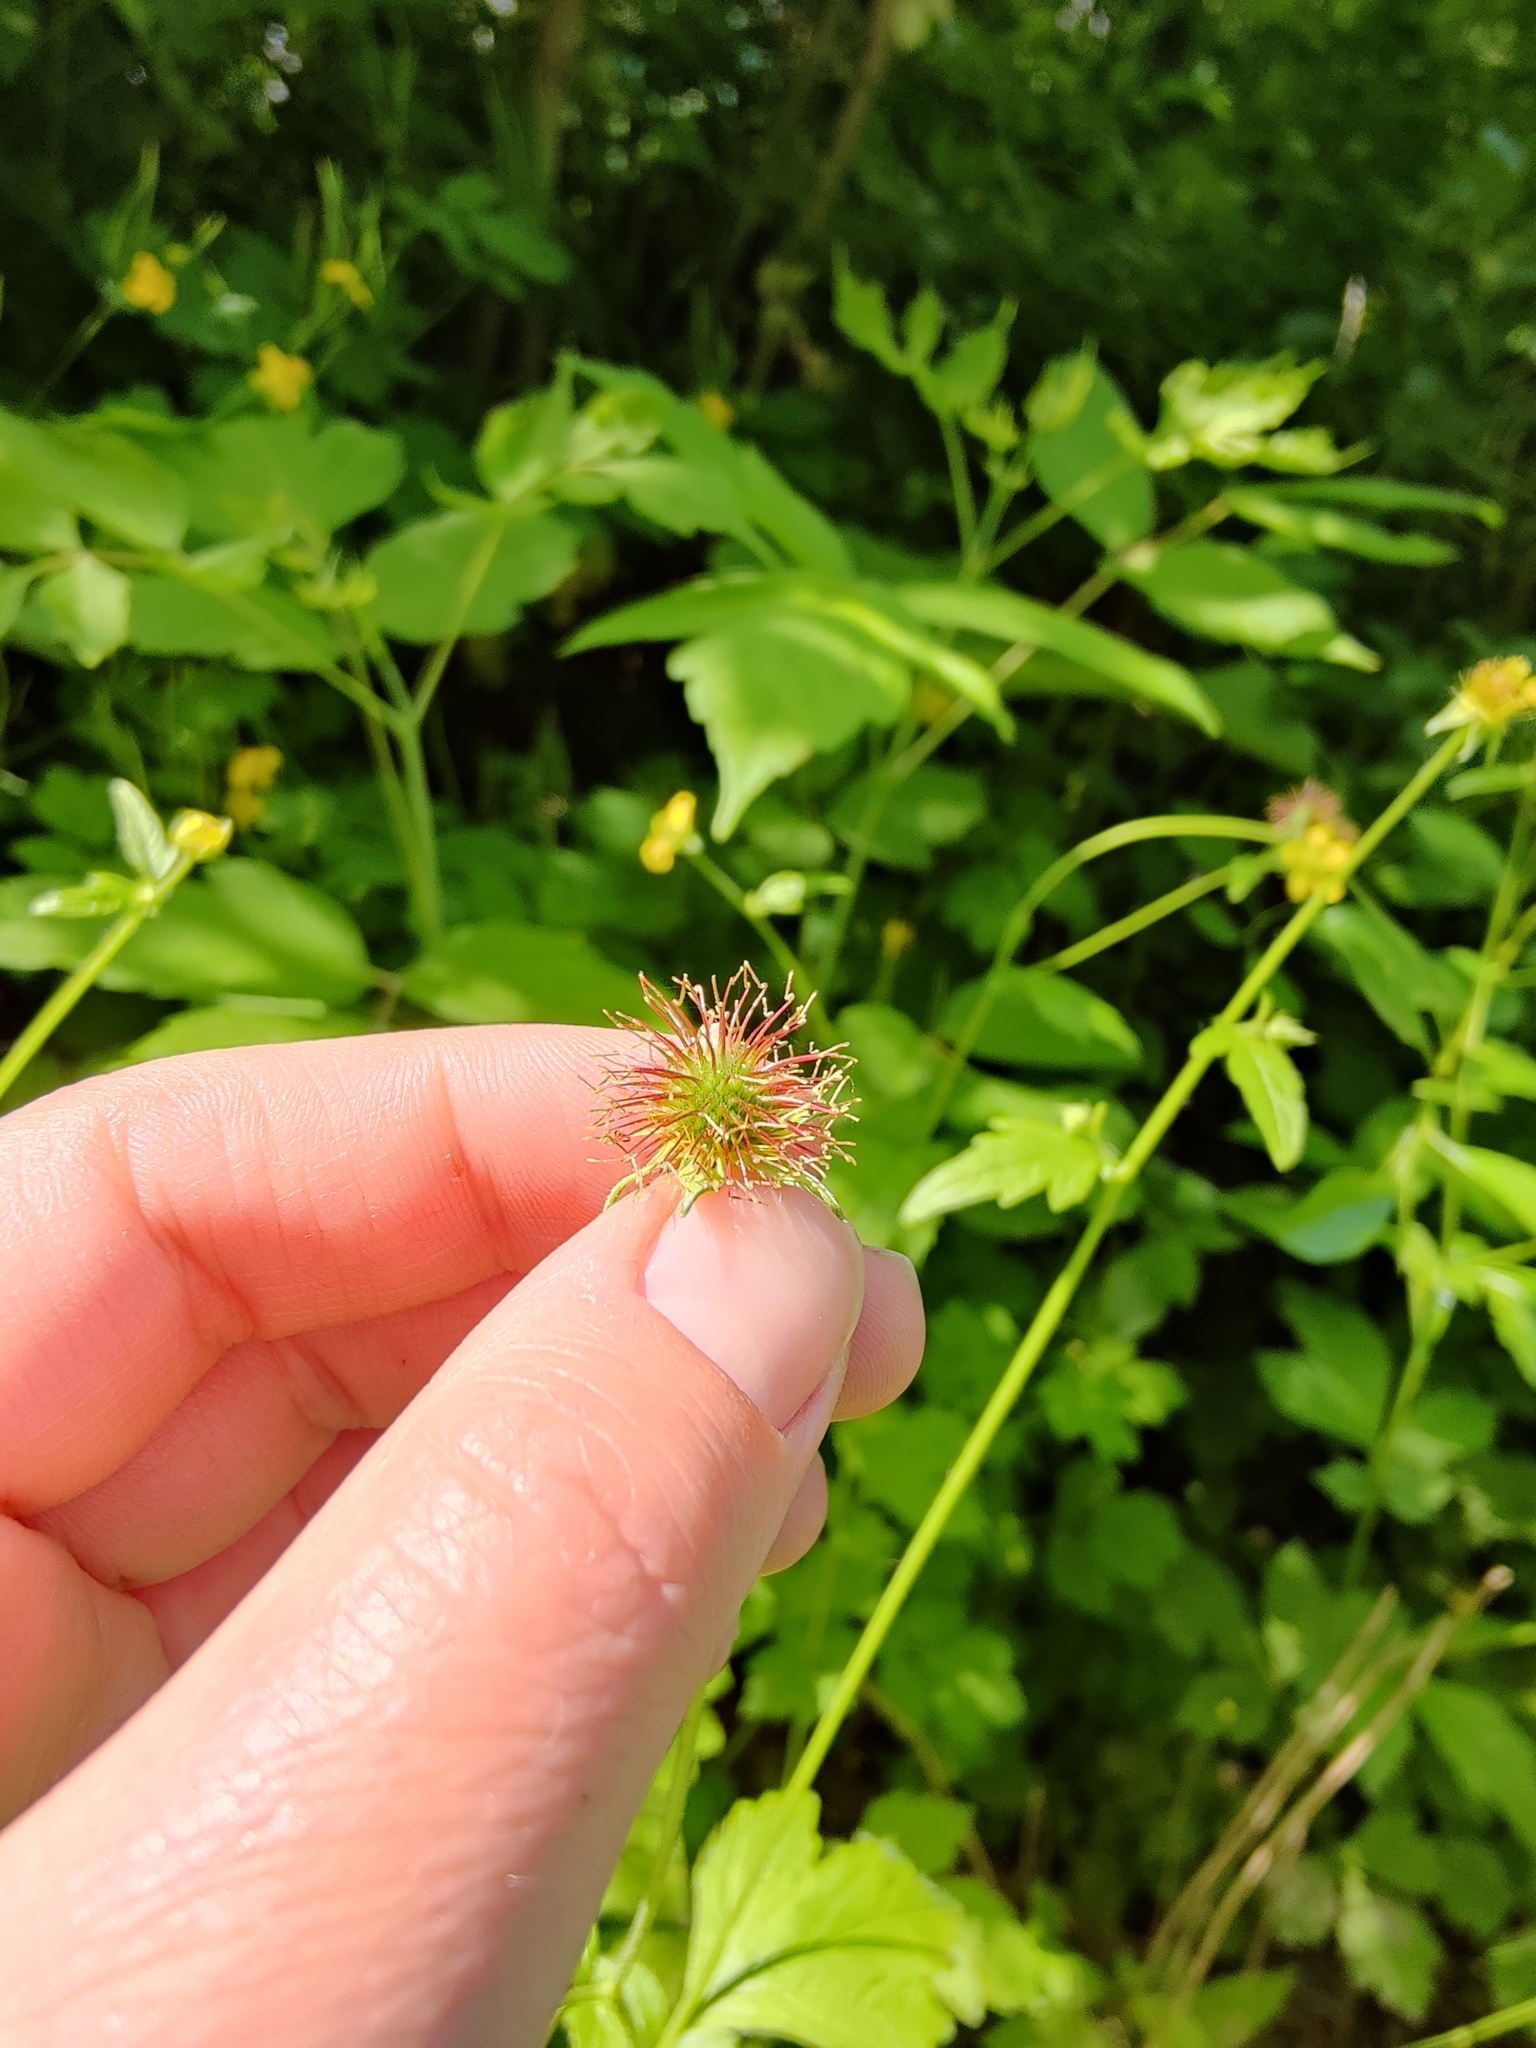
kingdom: Plantae
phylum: Tracheophyta
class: Magnoliopsida
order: Rosales
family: Rosaceae
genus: Geum
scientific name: Geum urbanum
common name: Wood avens
